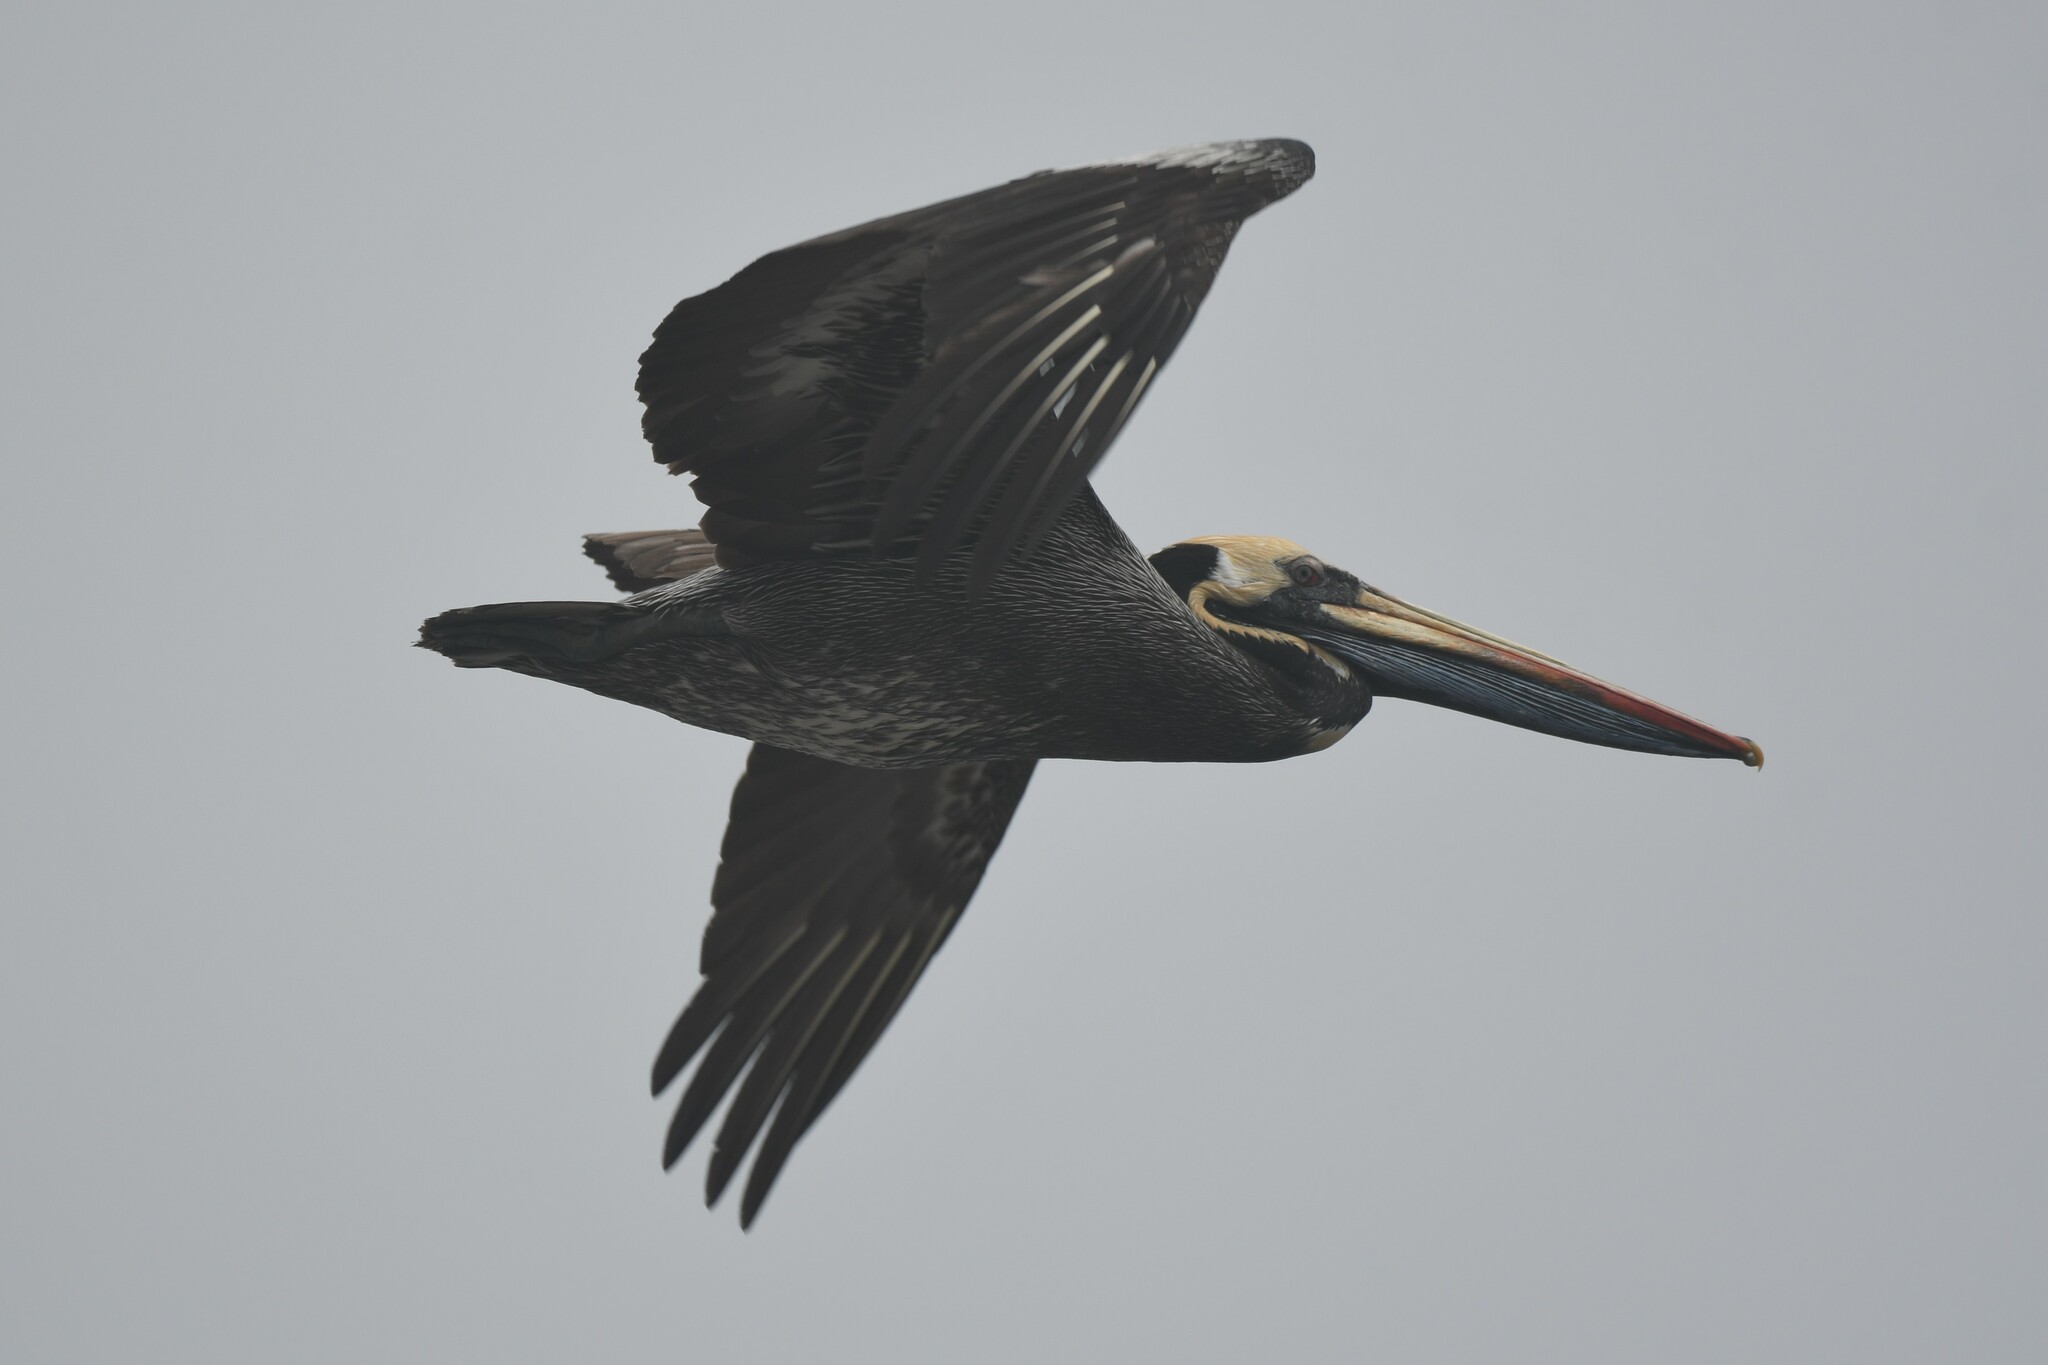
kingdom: Animalia
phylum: Chordata
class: Aves
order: Pelecaniformes
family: Pelecanidae
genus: Pelecanus
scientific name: Pelecanus thagus
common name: Peruvian pelican
